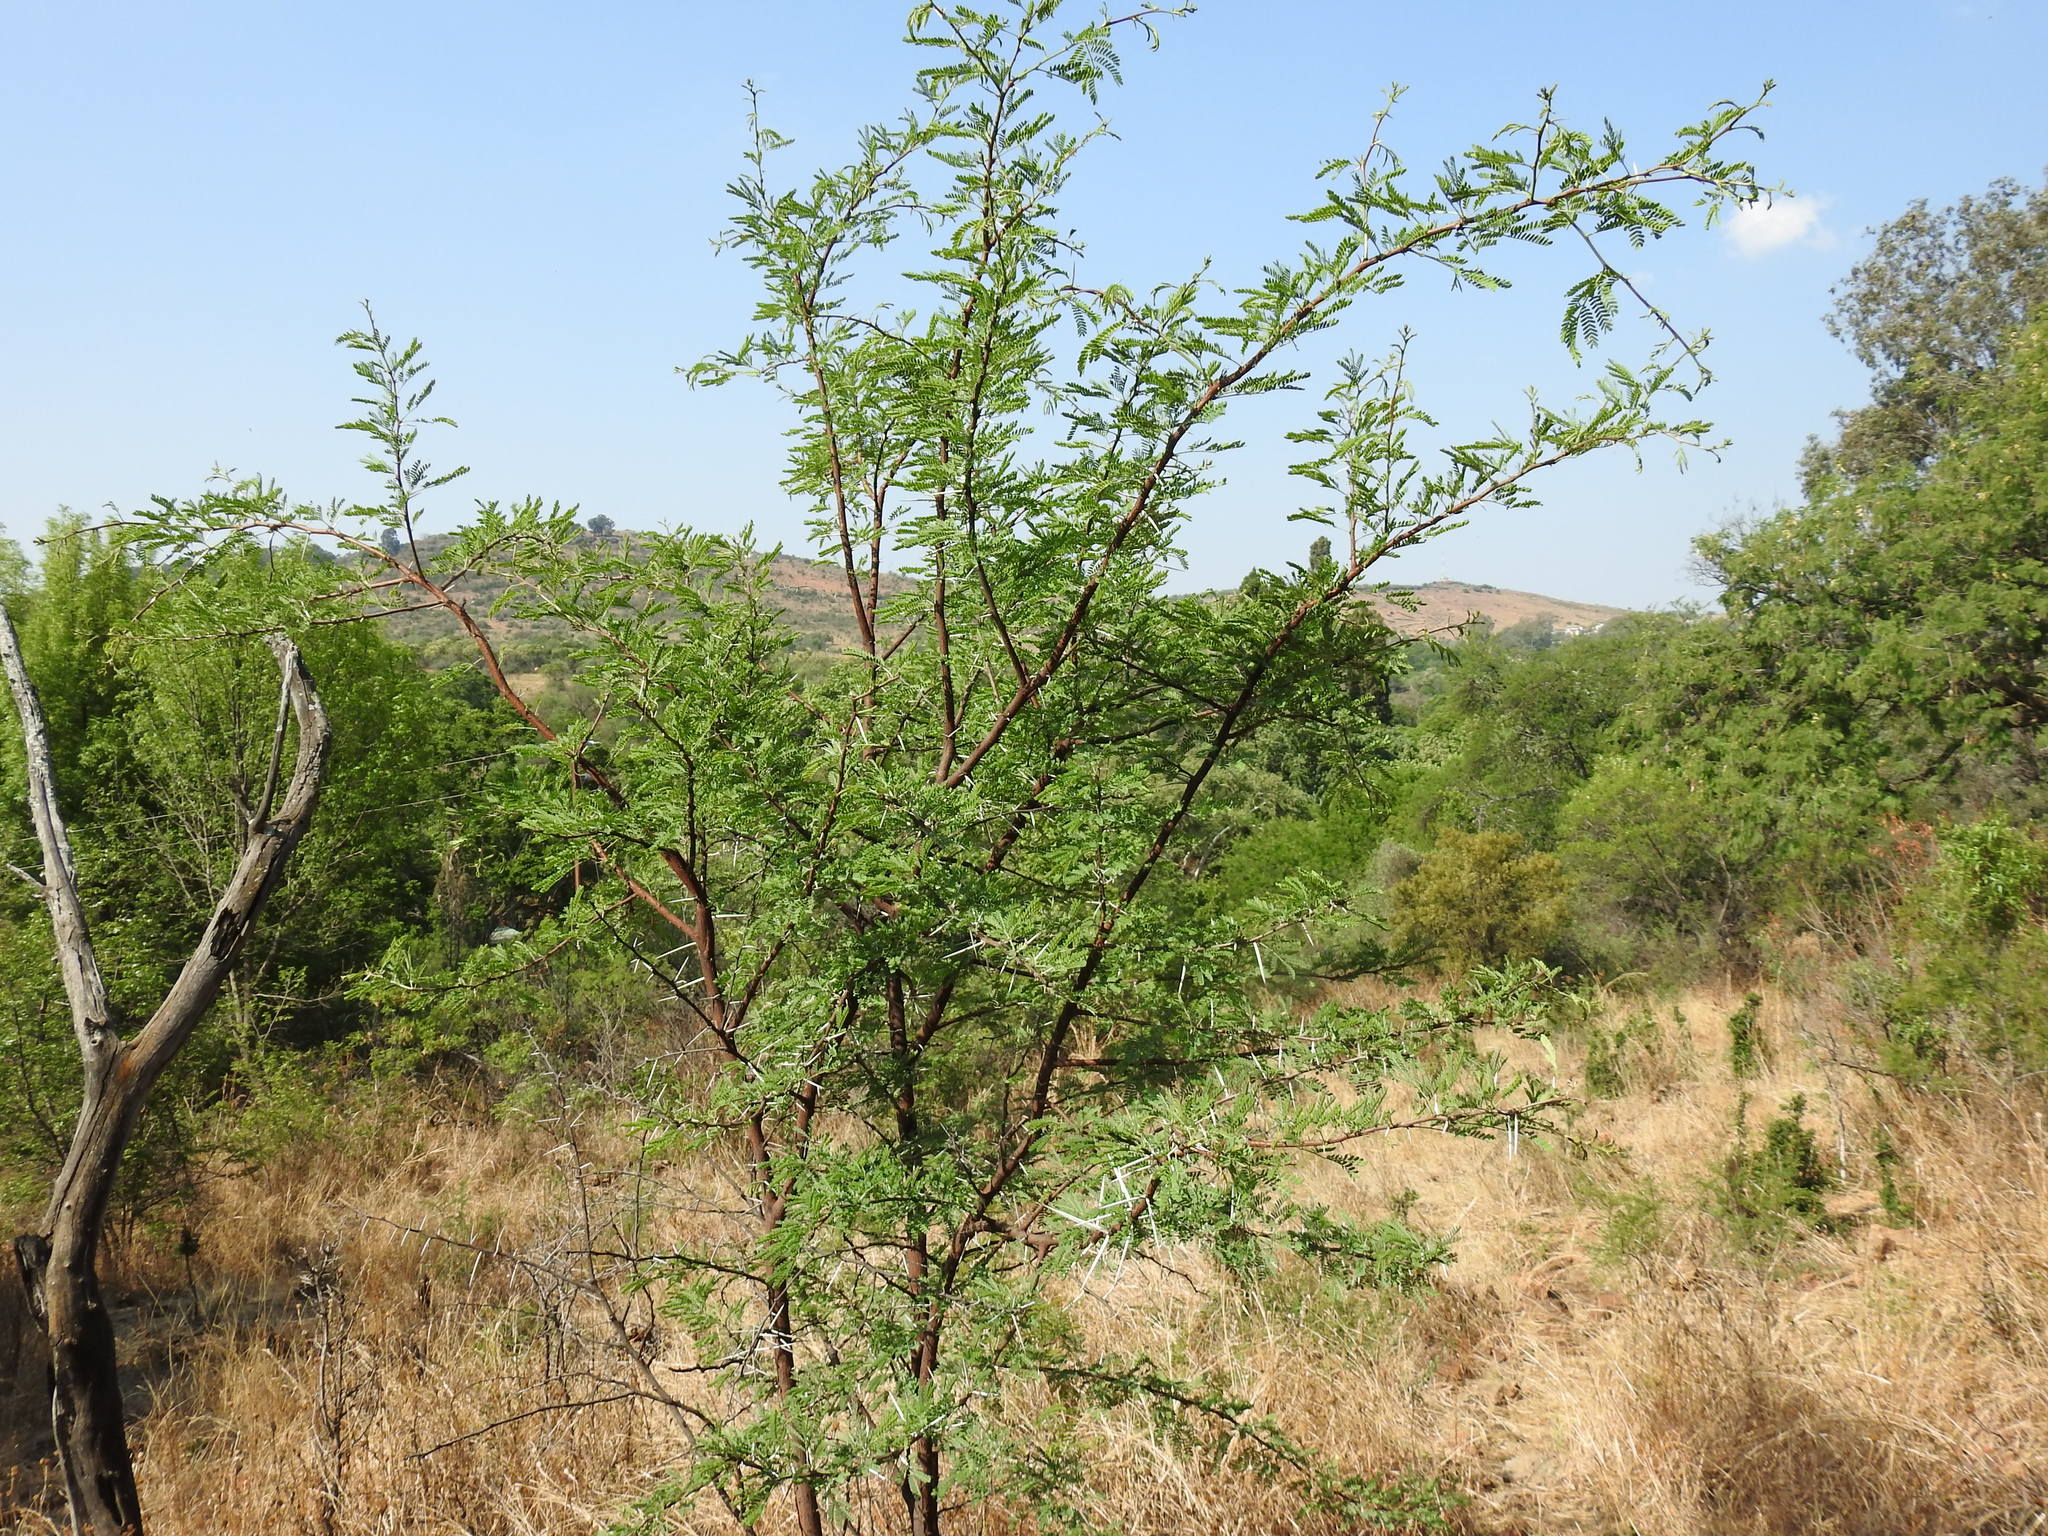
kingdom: Plantae
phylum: Tracheophyta
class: Magnoliopsida
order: Fabales
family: Fabaceae
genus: Vachellia
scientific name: Vachellia karroo
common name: Sweet thorn
